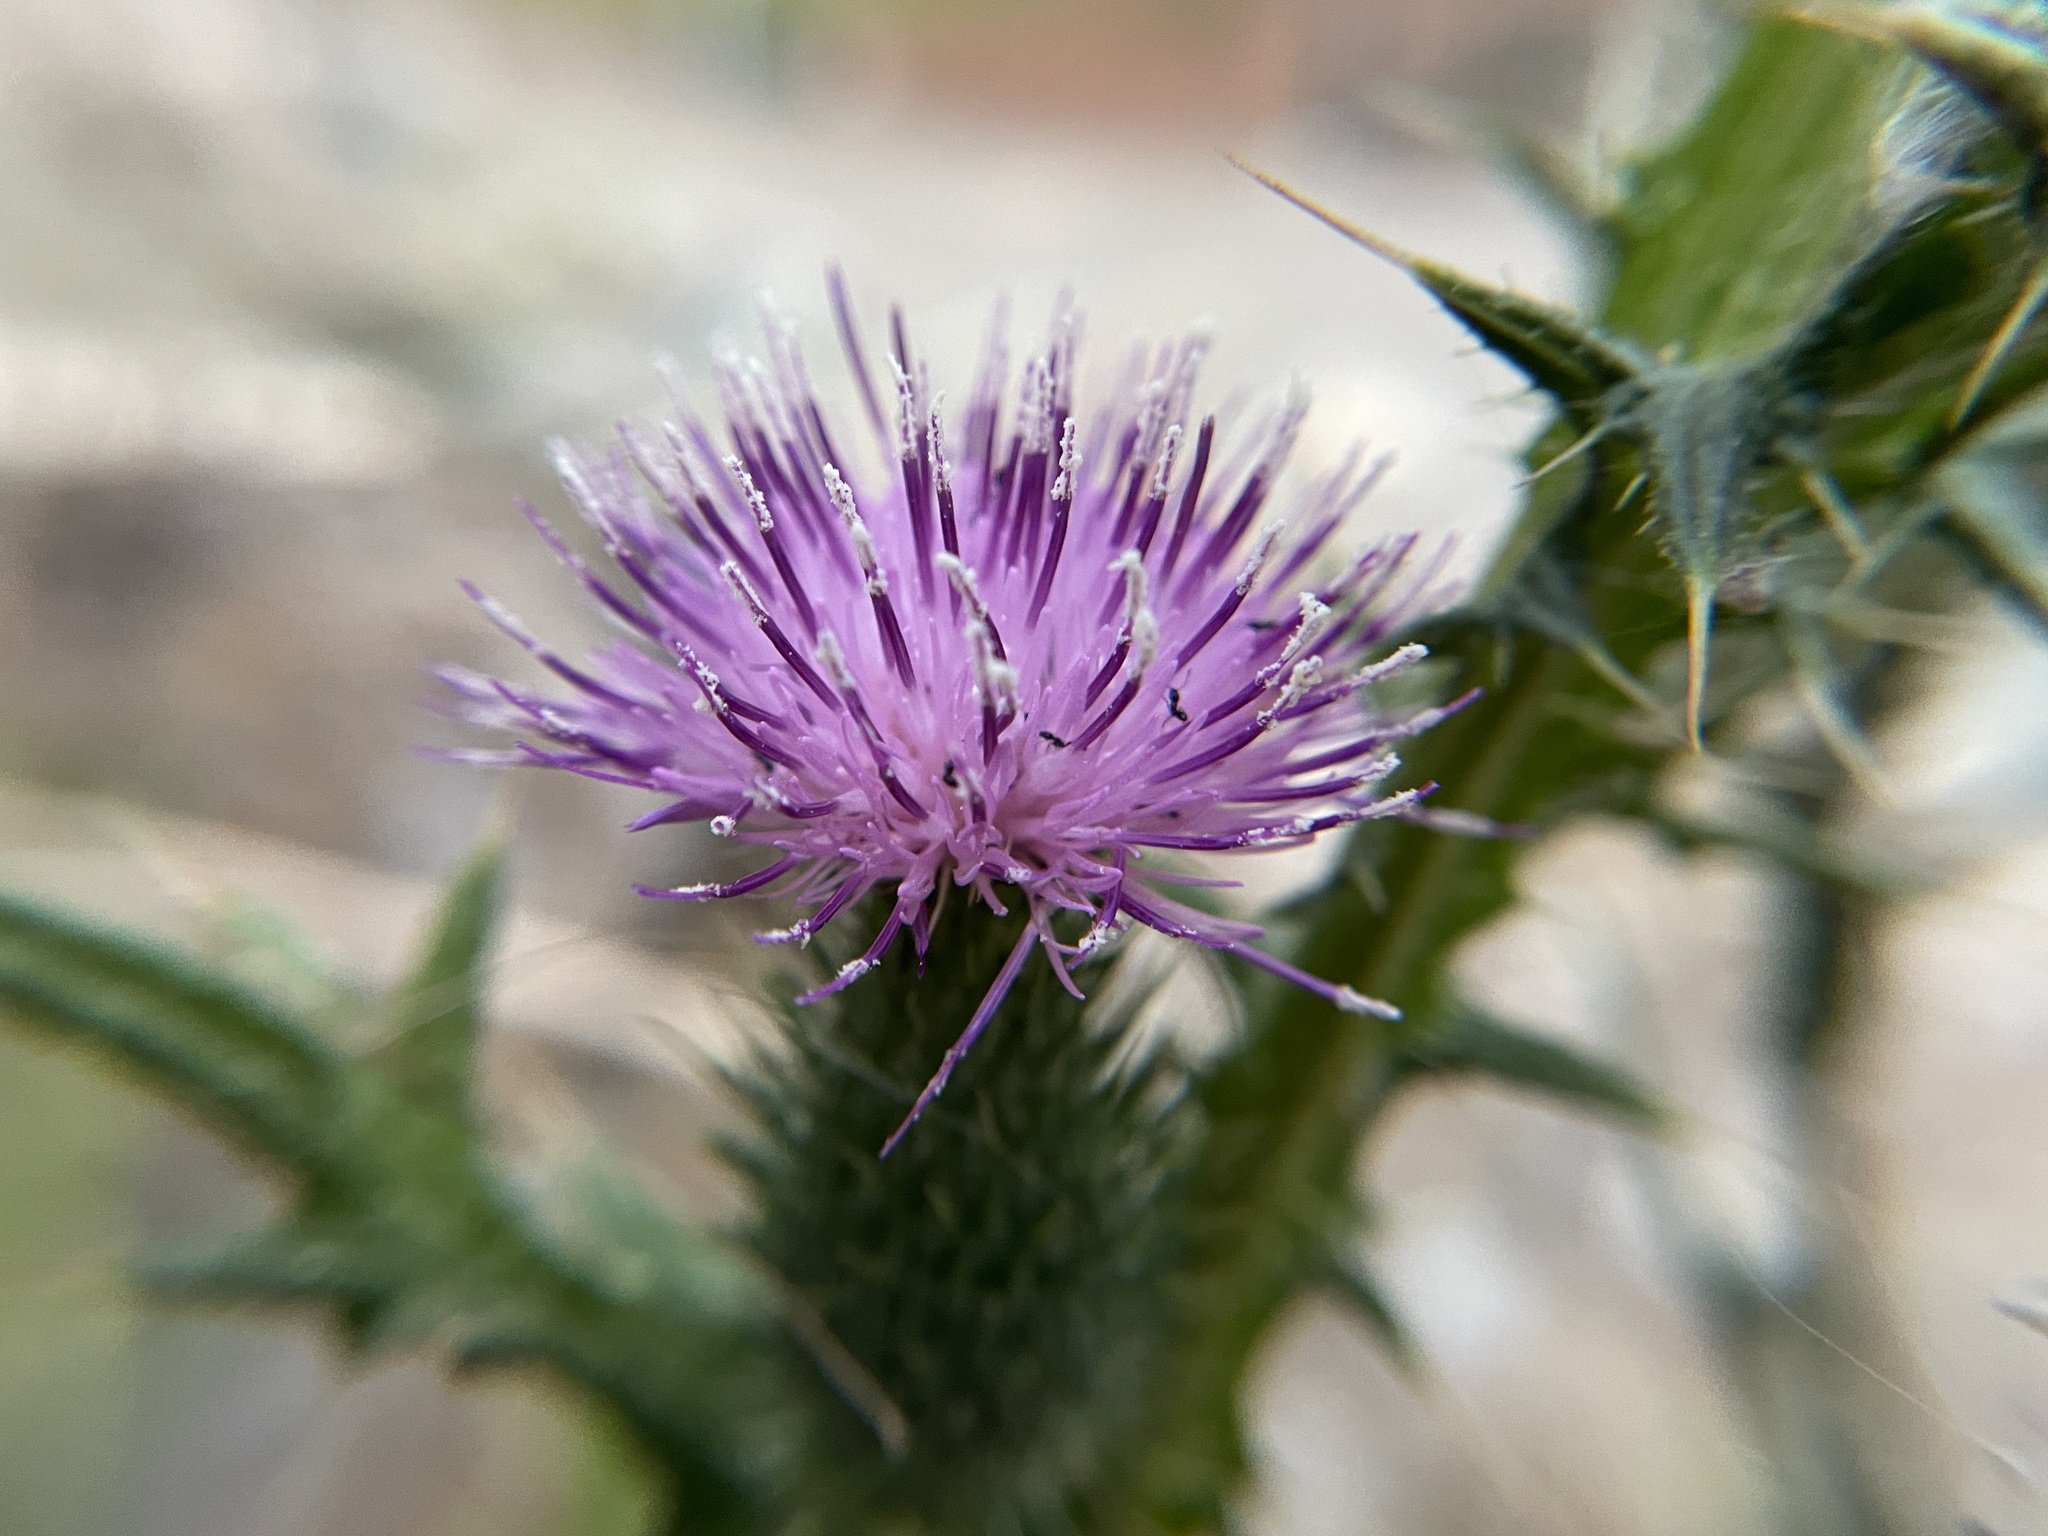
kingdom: Plantae
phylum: Tracheophyta
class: Magnoliopsida
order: Asterales
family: Asteraceae
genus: Cirsium
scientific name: Cirsium vulgare
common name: Bull thistle
